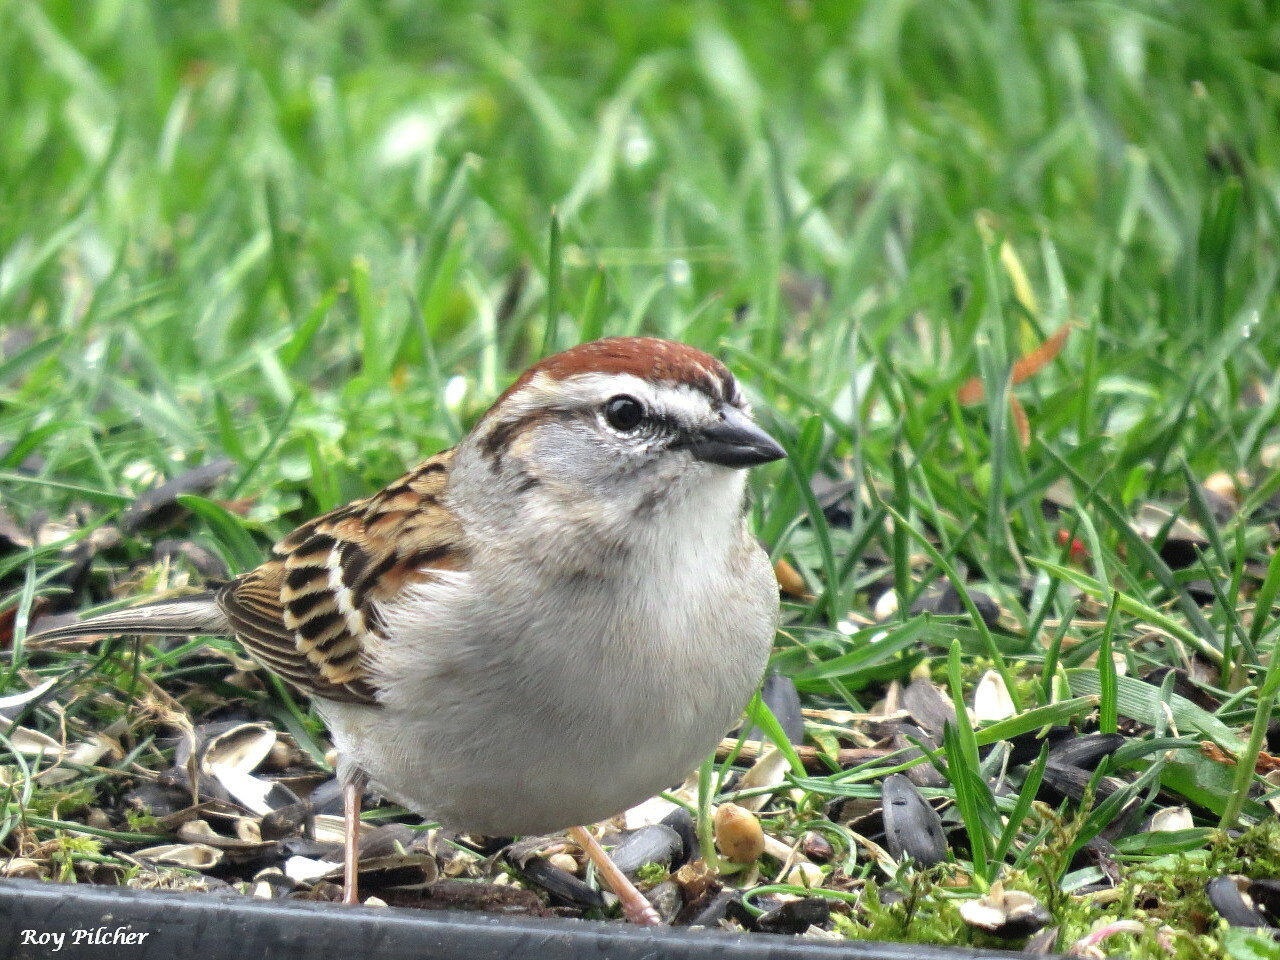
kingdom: Animalia
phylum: Chordata
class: Aves
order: Passeriformes
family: Passerellidae
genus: Spizella
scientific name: Spizella passerina
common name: Chipping sparrow
